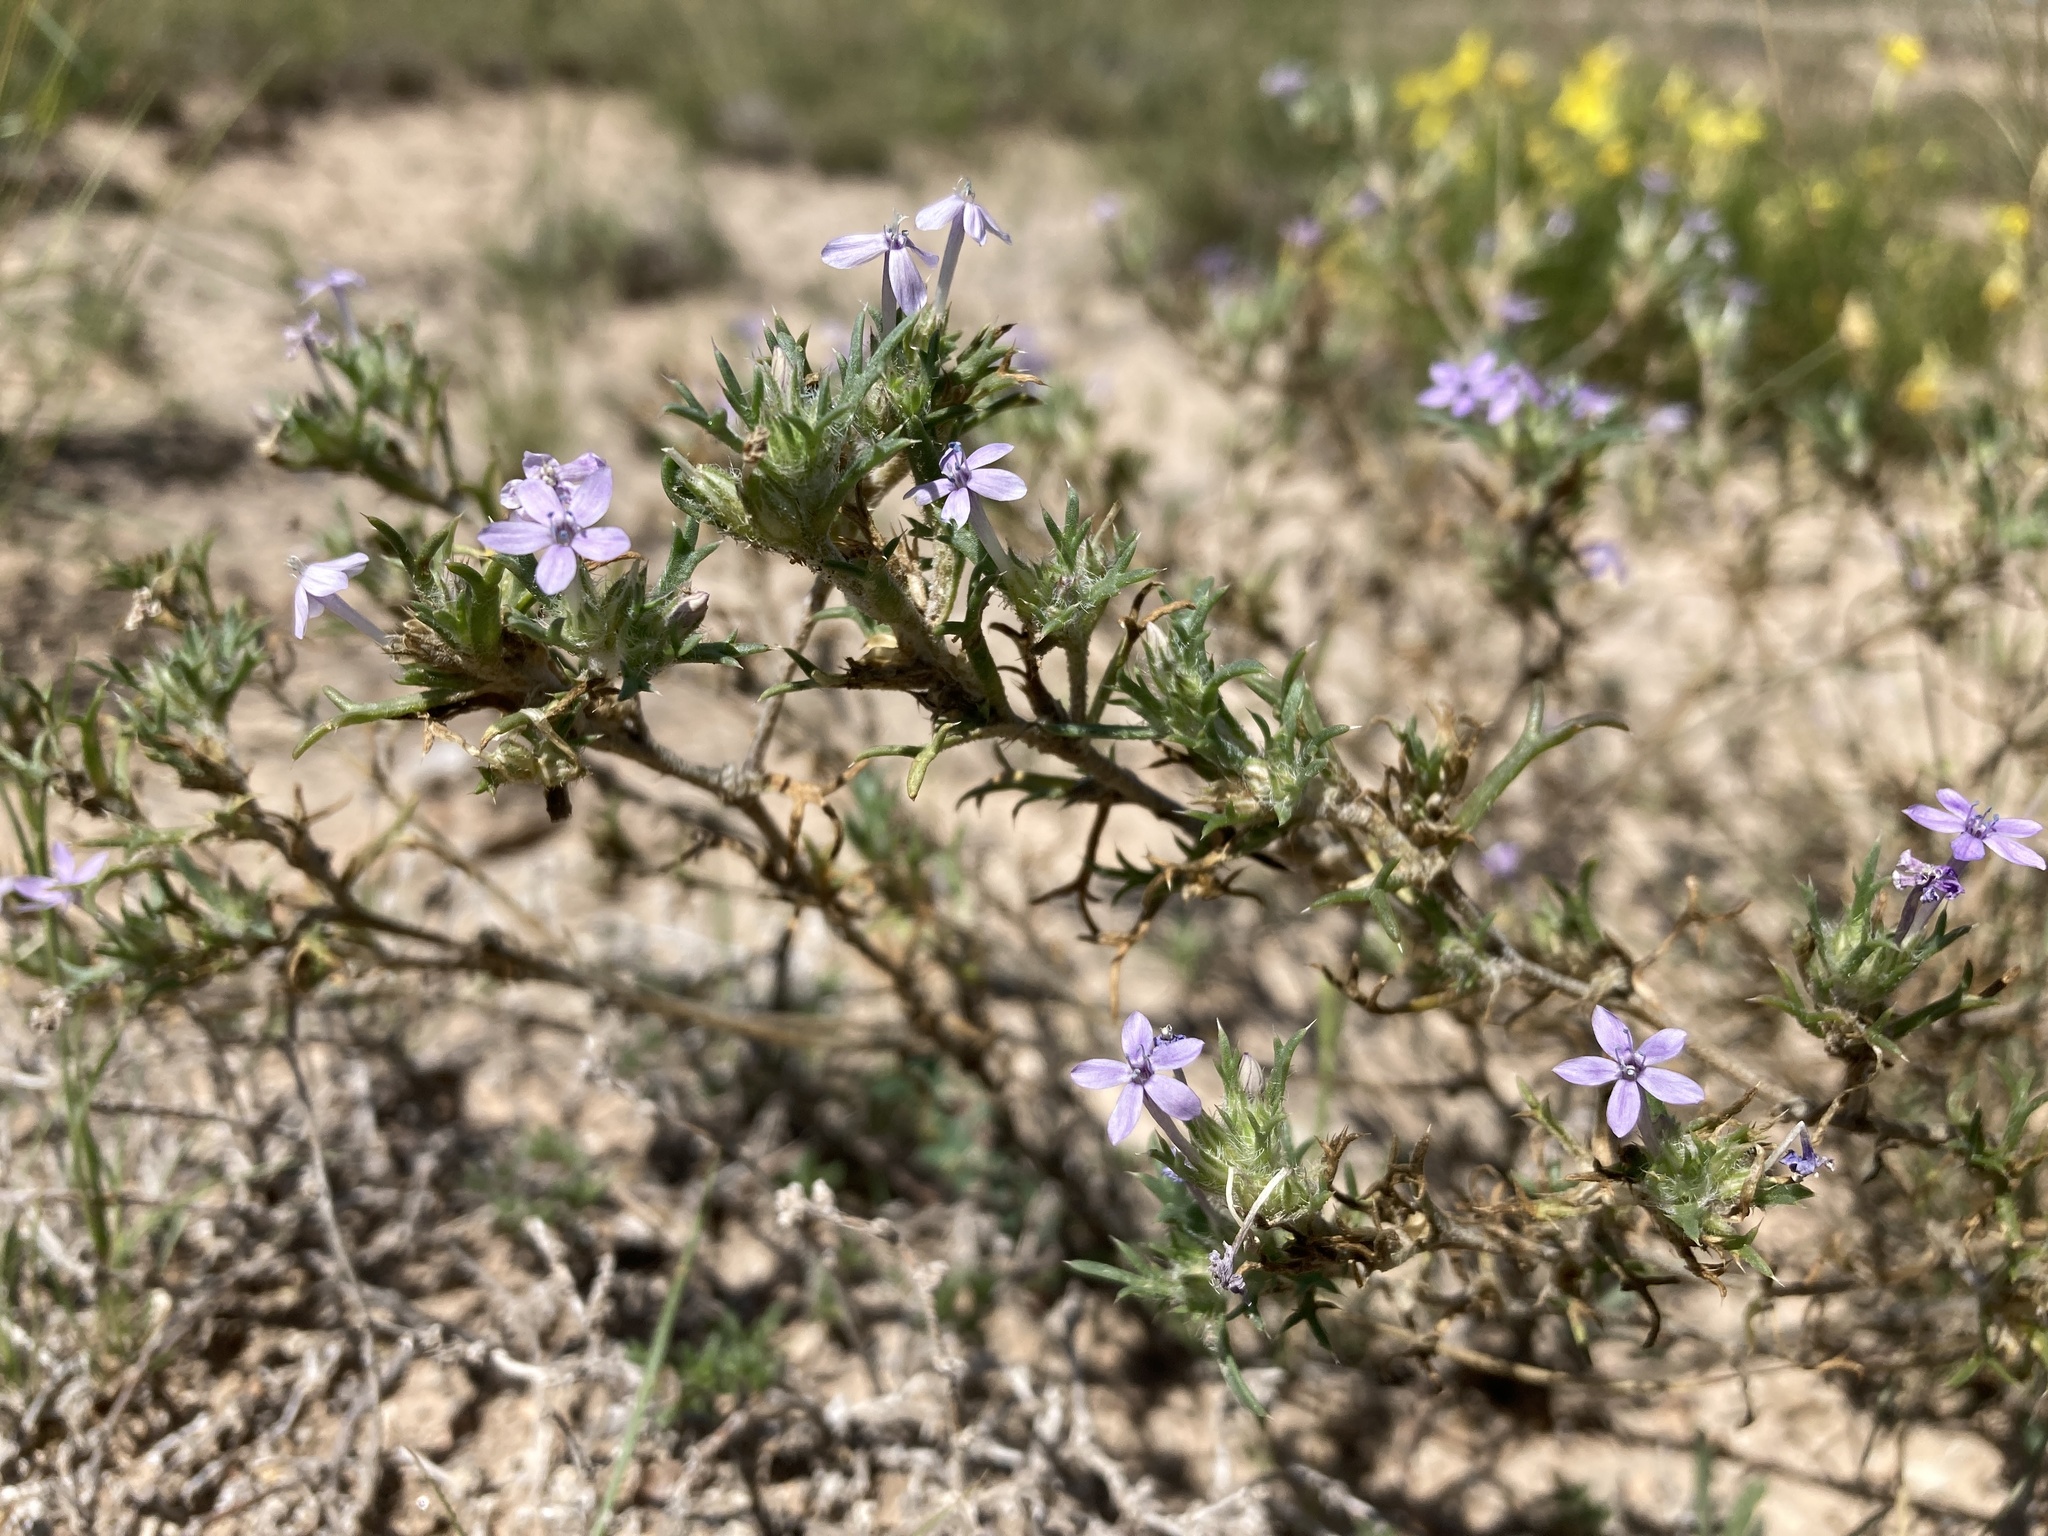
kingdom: Plantae
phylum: Tracheophyta
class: Magnoliopsida
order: Ericales
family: Polemoniaceae
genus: Ipomopsis
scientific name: Ipomopsis pumila
